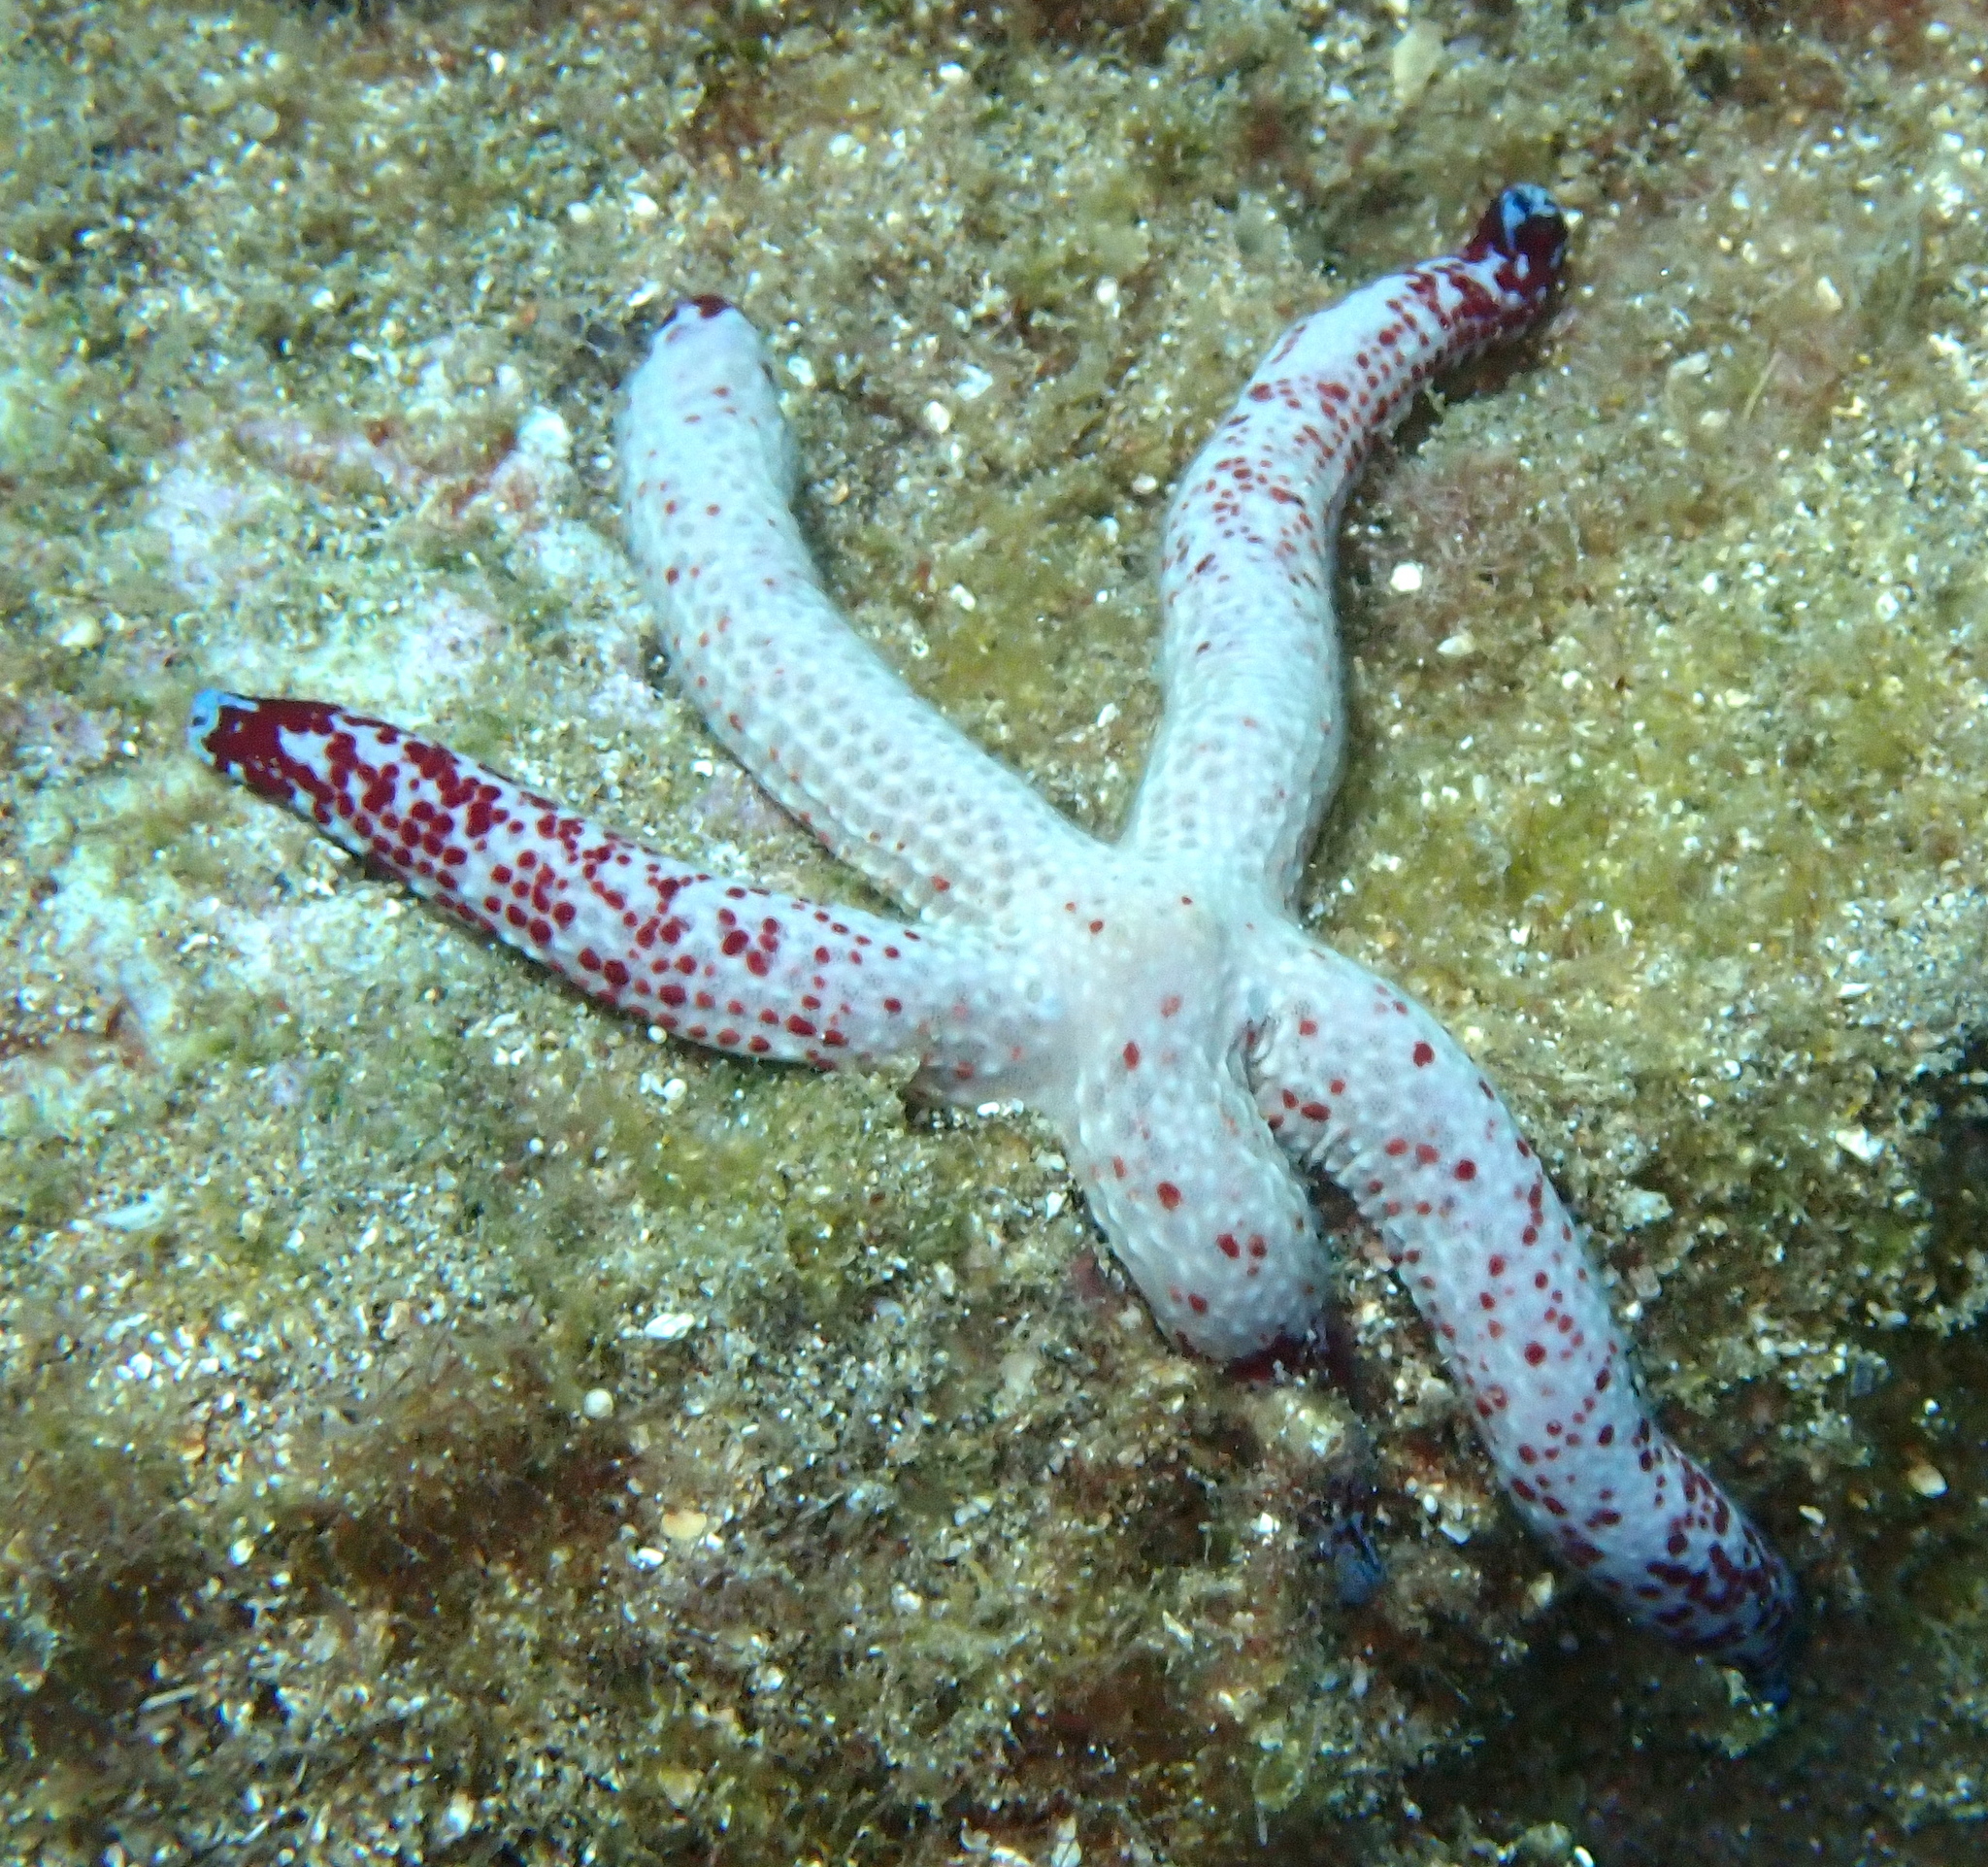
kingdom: Animalia
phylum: Echinodermata
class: Asteroidea
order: Valvatida
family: Ophidiasteridae
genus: Linckia
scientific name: Linckia multifora
